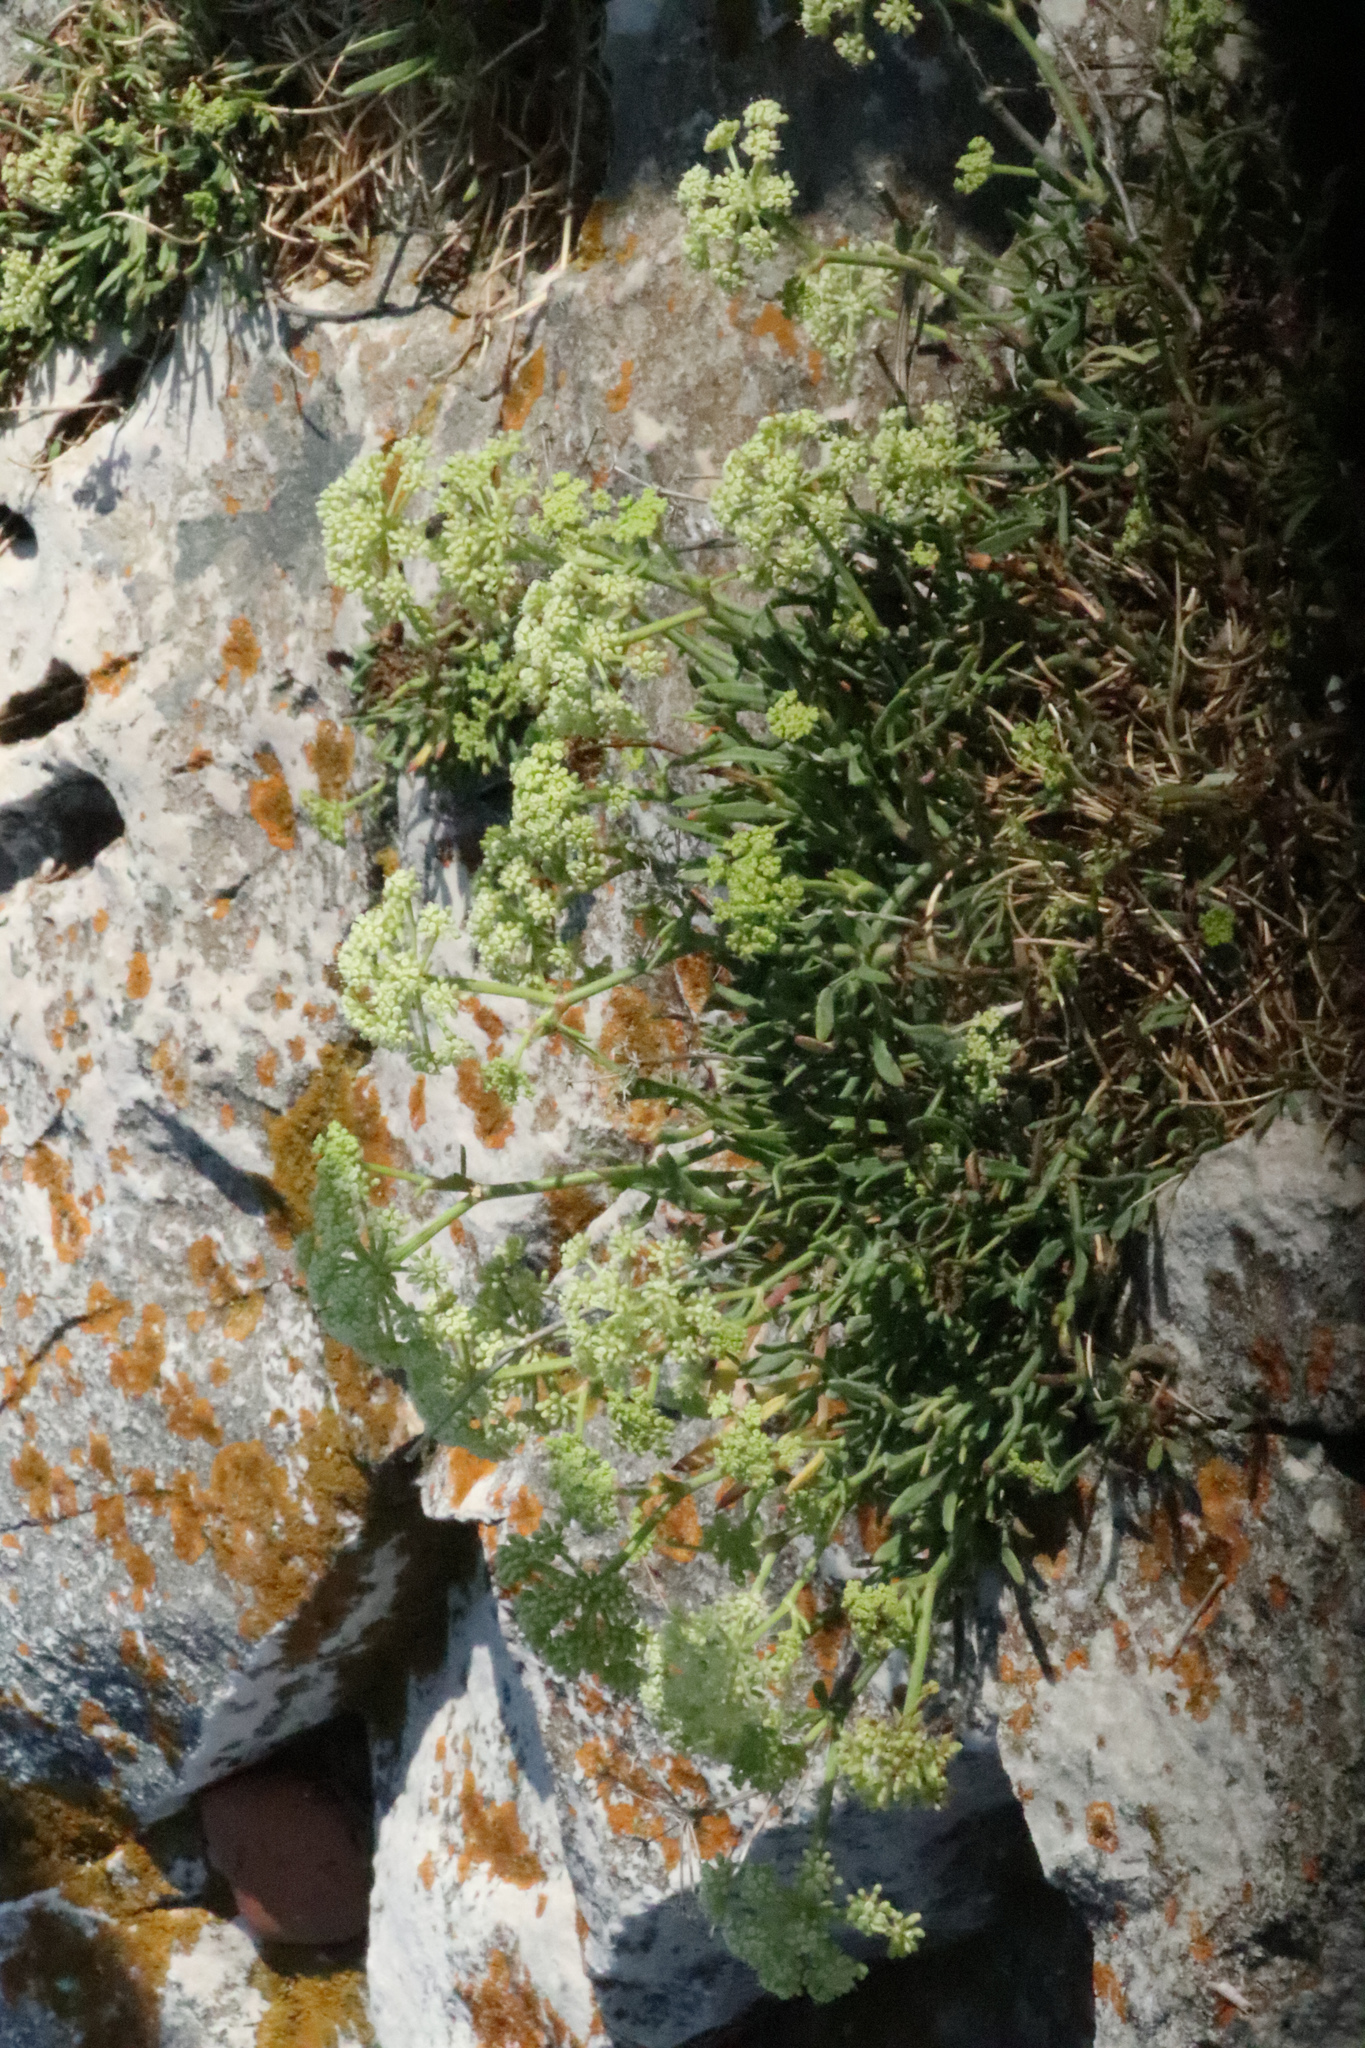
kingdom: Plantae
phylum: Tracheophyta
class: Magnoliopsida
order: Apiales
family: Apiaceae
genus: Crithmum
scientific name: Crithmum maritimum
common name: Rock samphire
